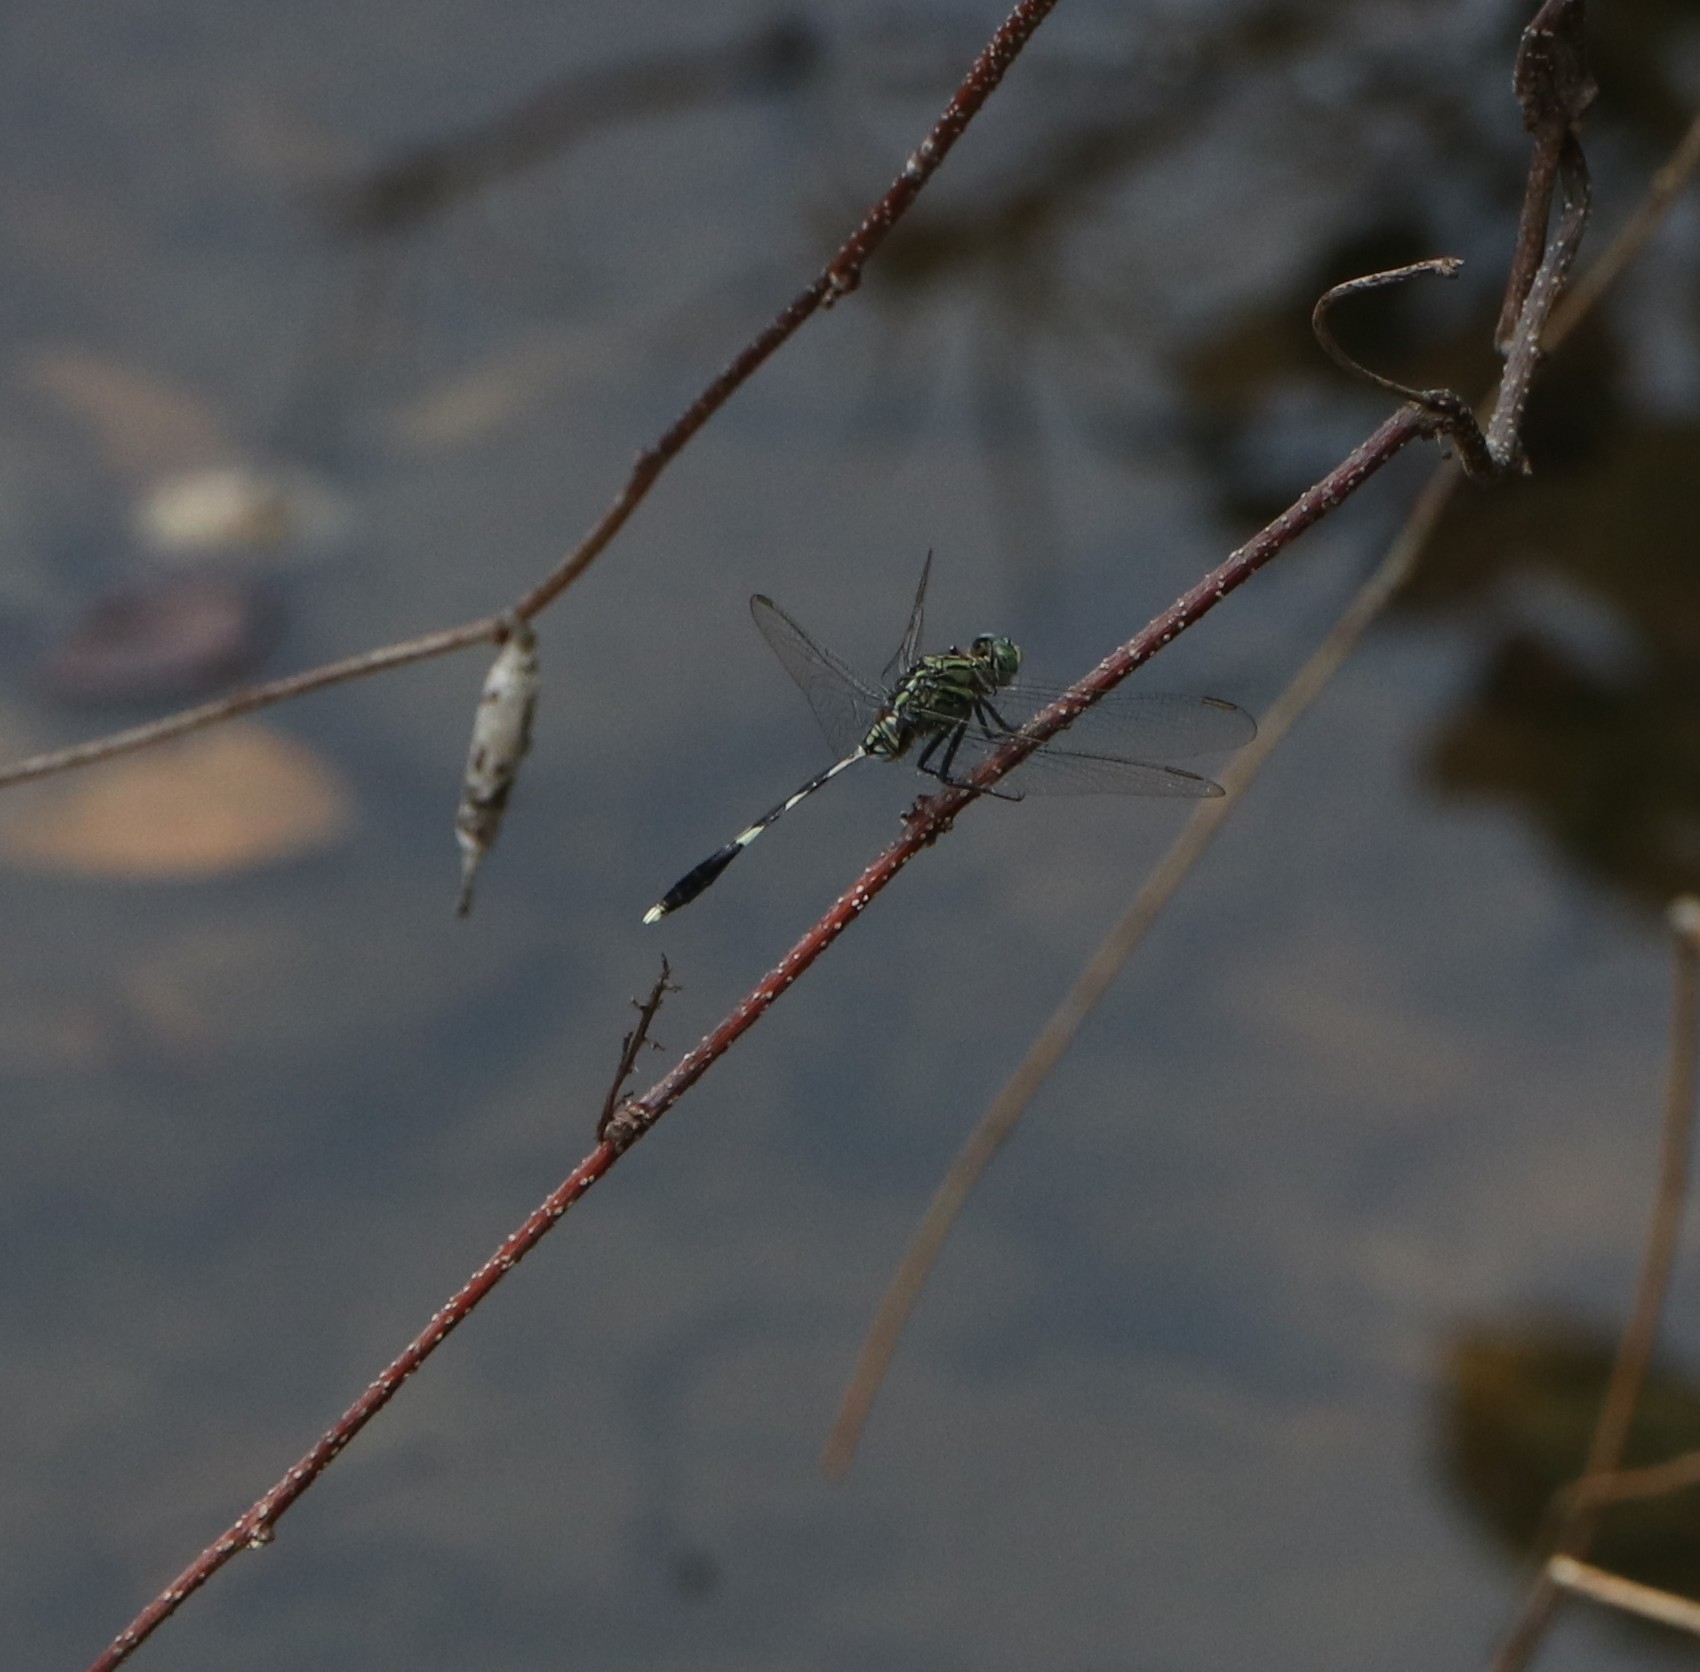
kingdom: Animalia
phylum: Arthropoda
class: Insecta
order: Odonata
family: Libellulidae
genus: Orthetrum
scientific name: Orthetrum sabina
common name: Slender skimmer
